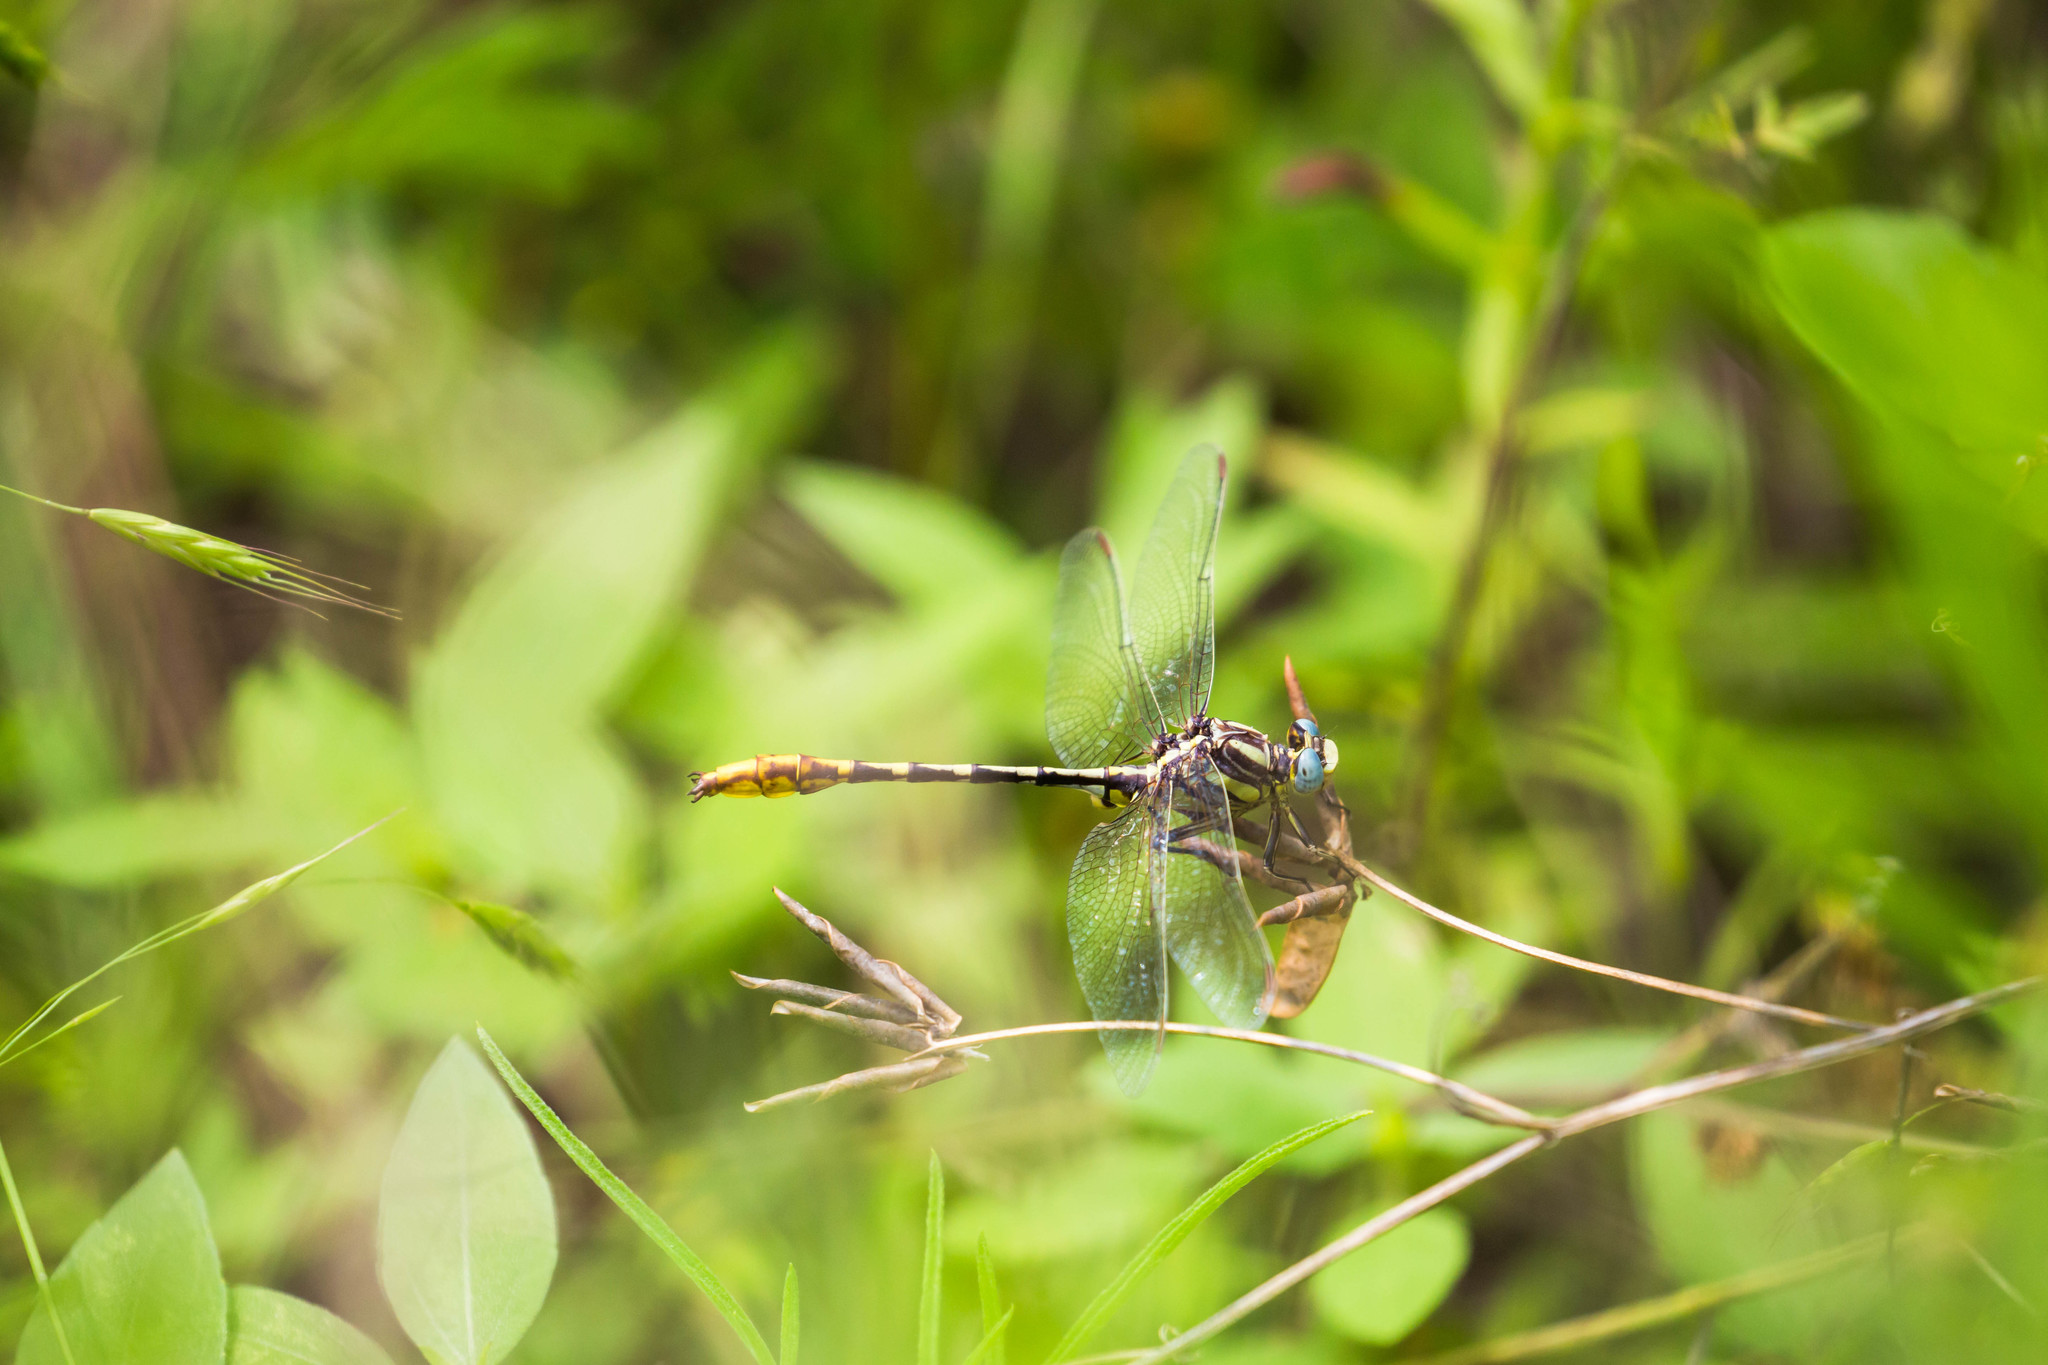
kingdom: Animalia
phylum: Arthropoda
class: Insecta
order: Odonata
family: Gomphidae
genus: Phanogomphus
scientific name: Phanogomphus militaris
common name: Sulphur-tipped clubtail
